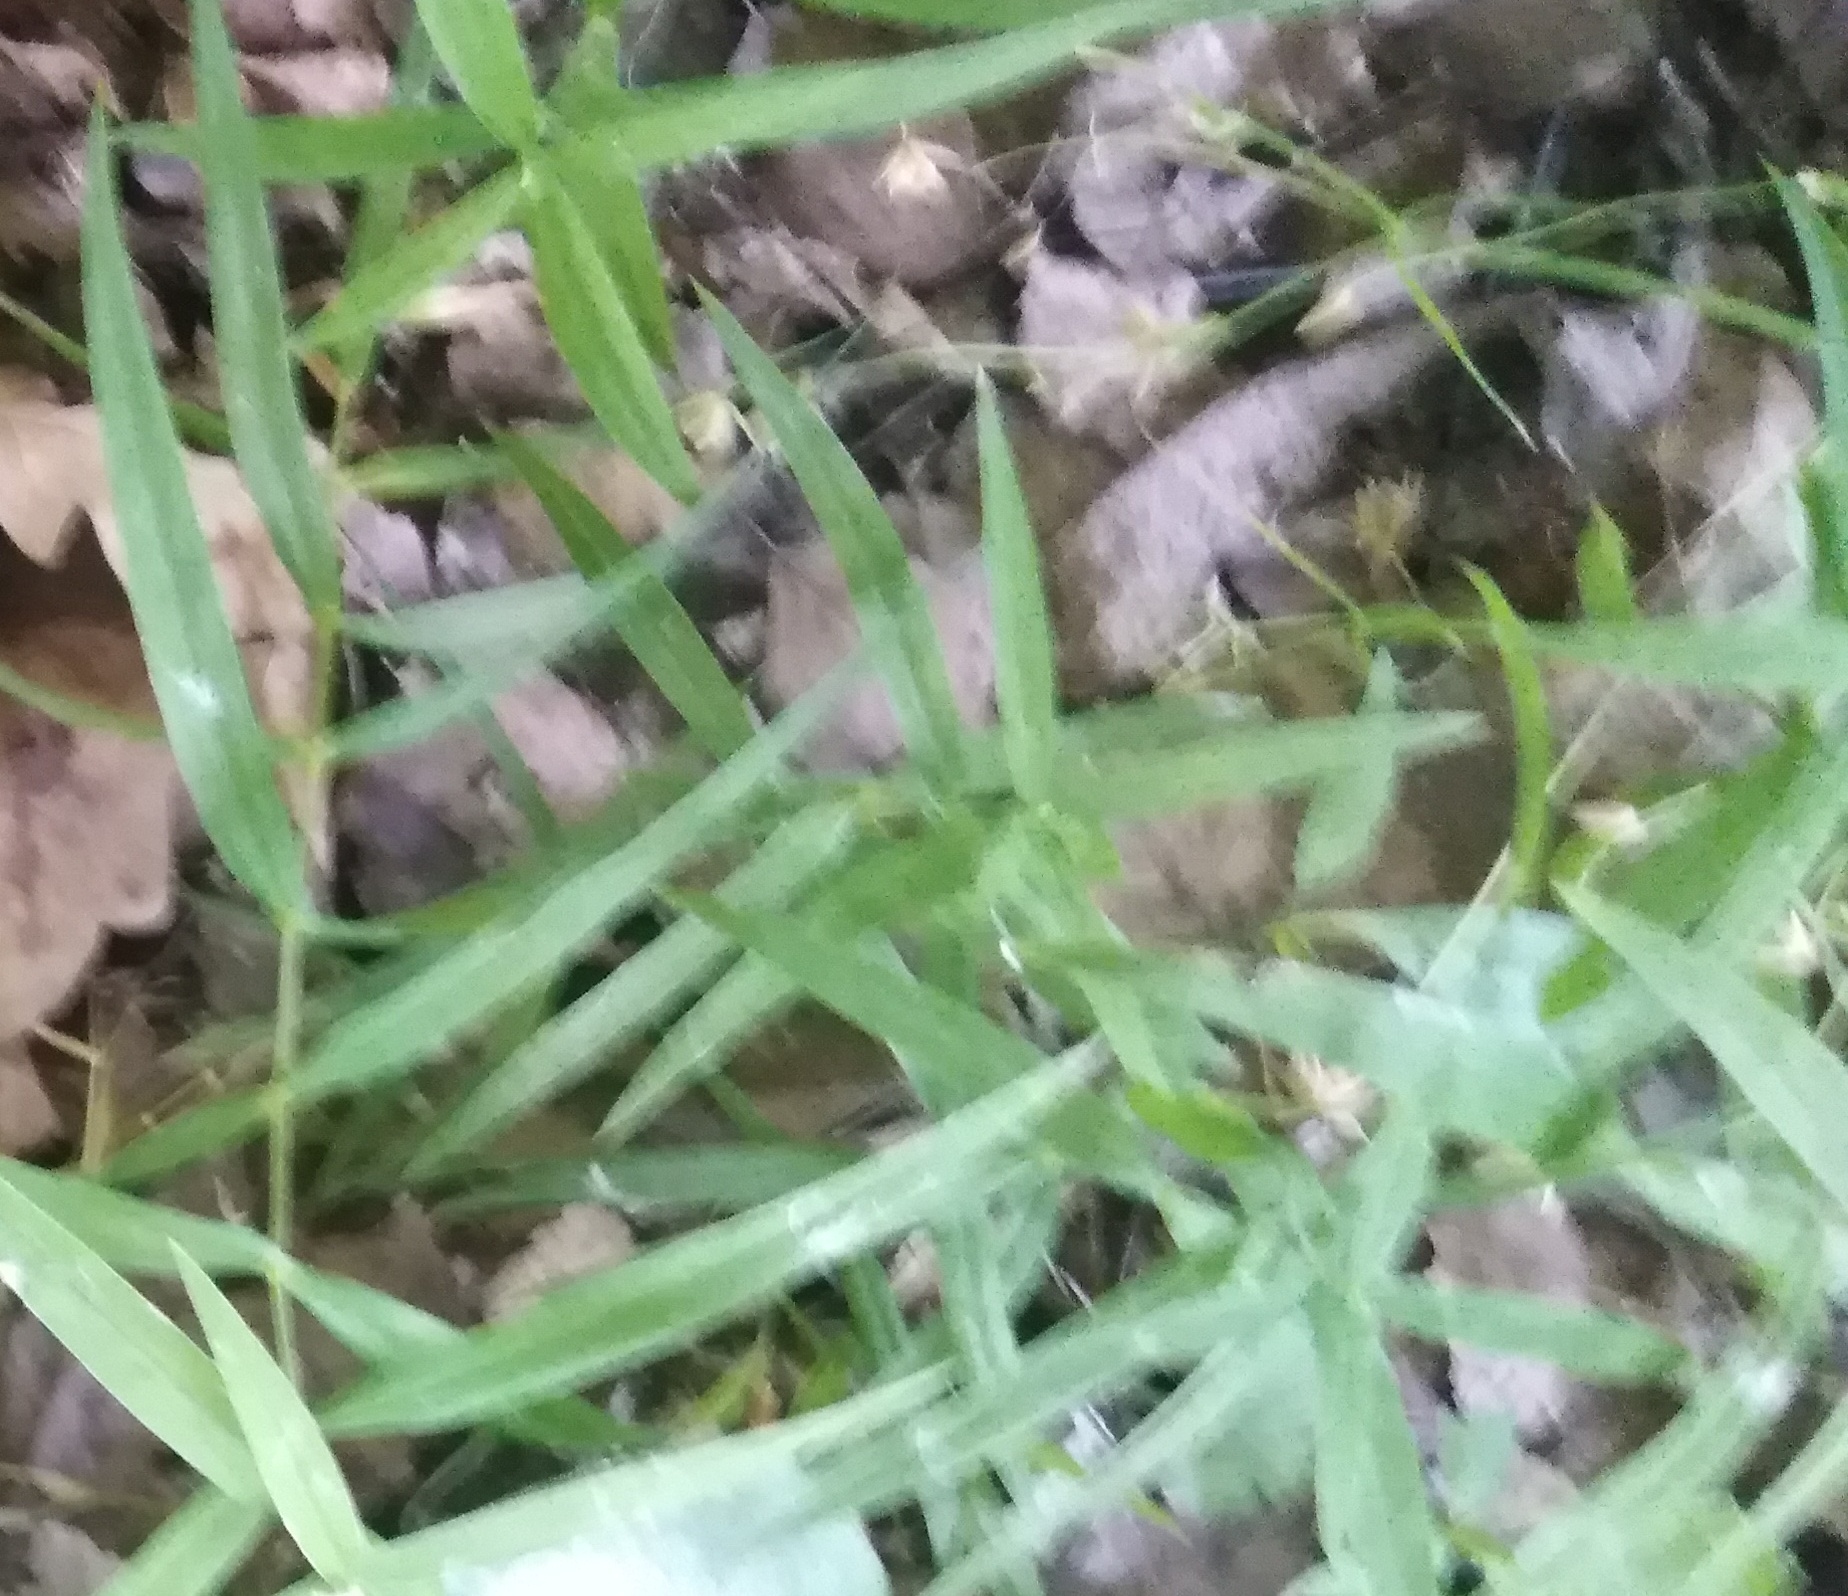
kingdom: Plantae
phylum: Tracheophyta
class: Magnoliopsida
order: Caryophyllales
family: Caryophyllaceae
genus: Rabelera
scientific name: Rabelera holostea
